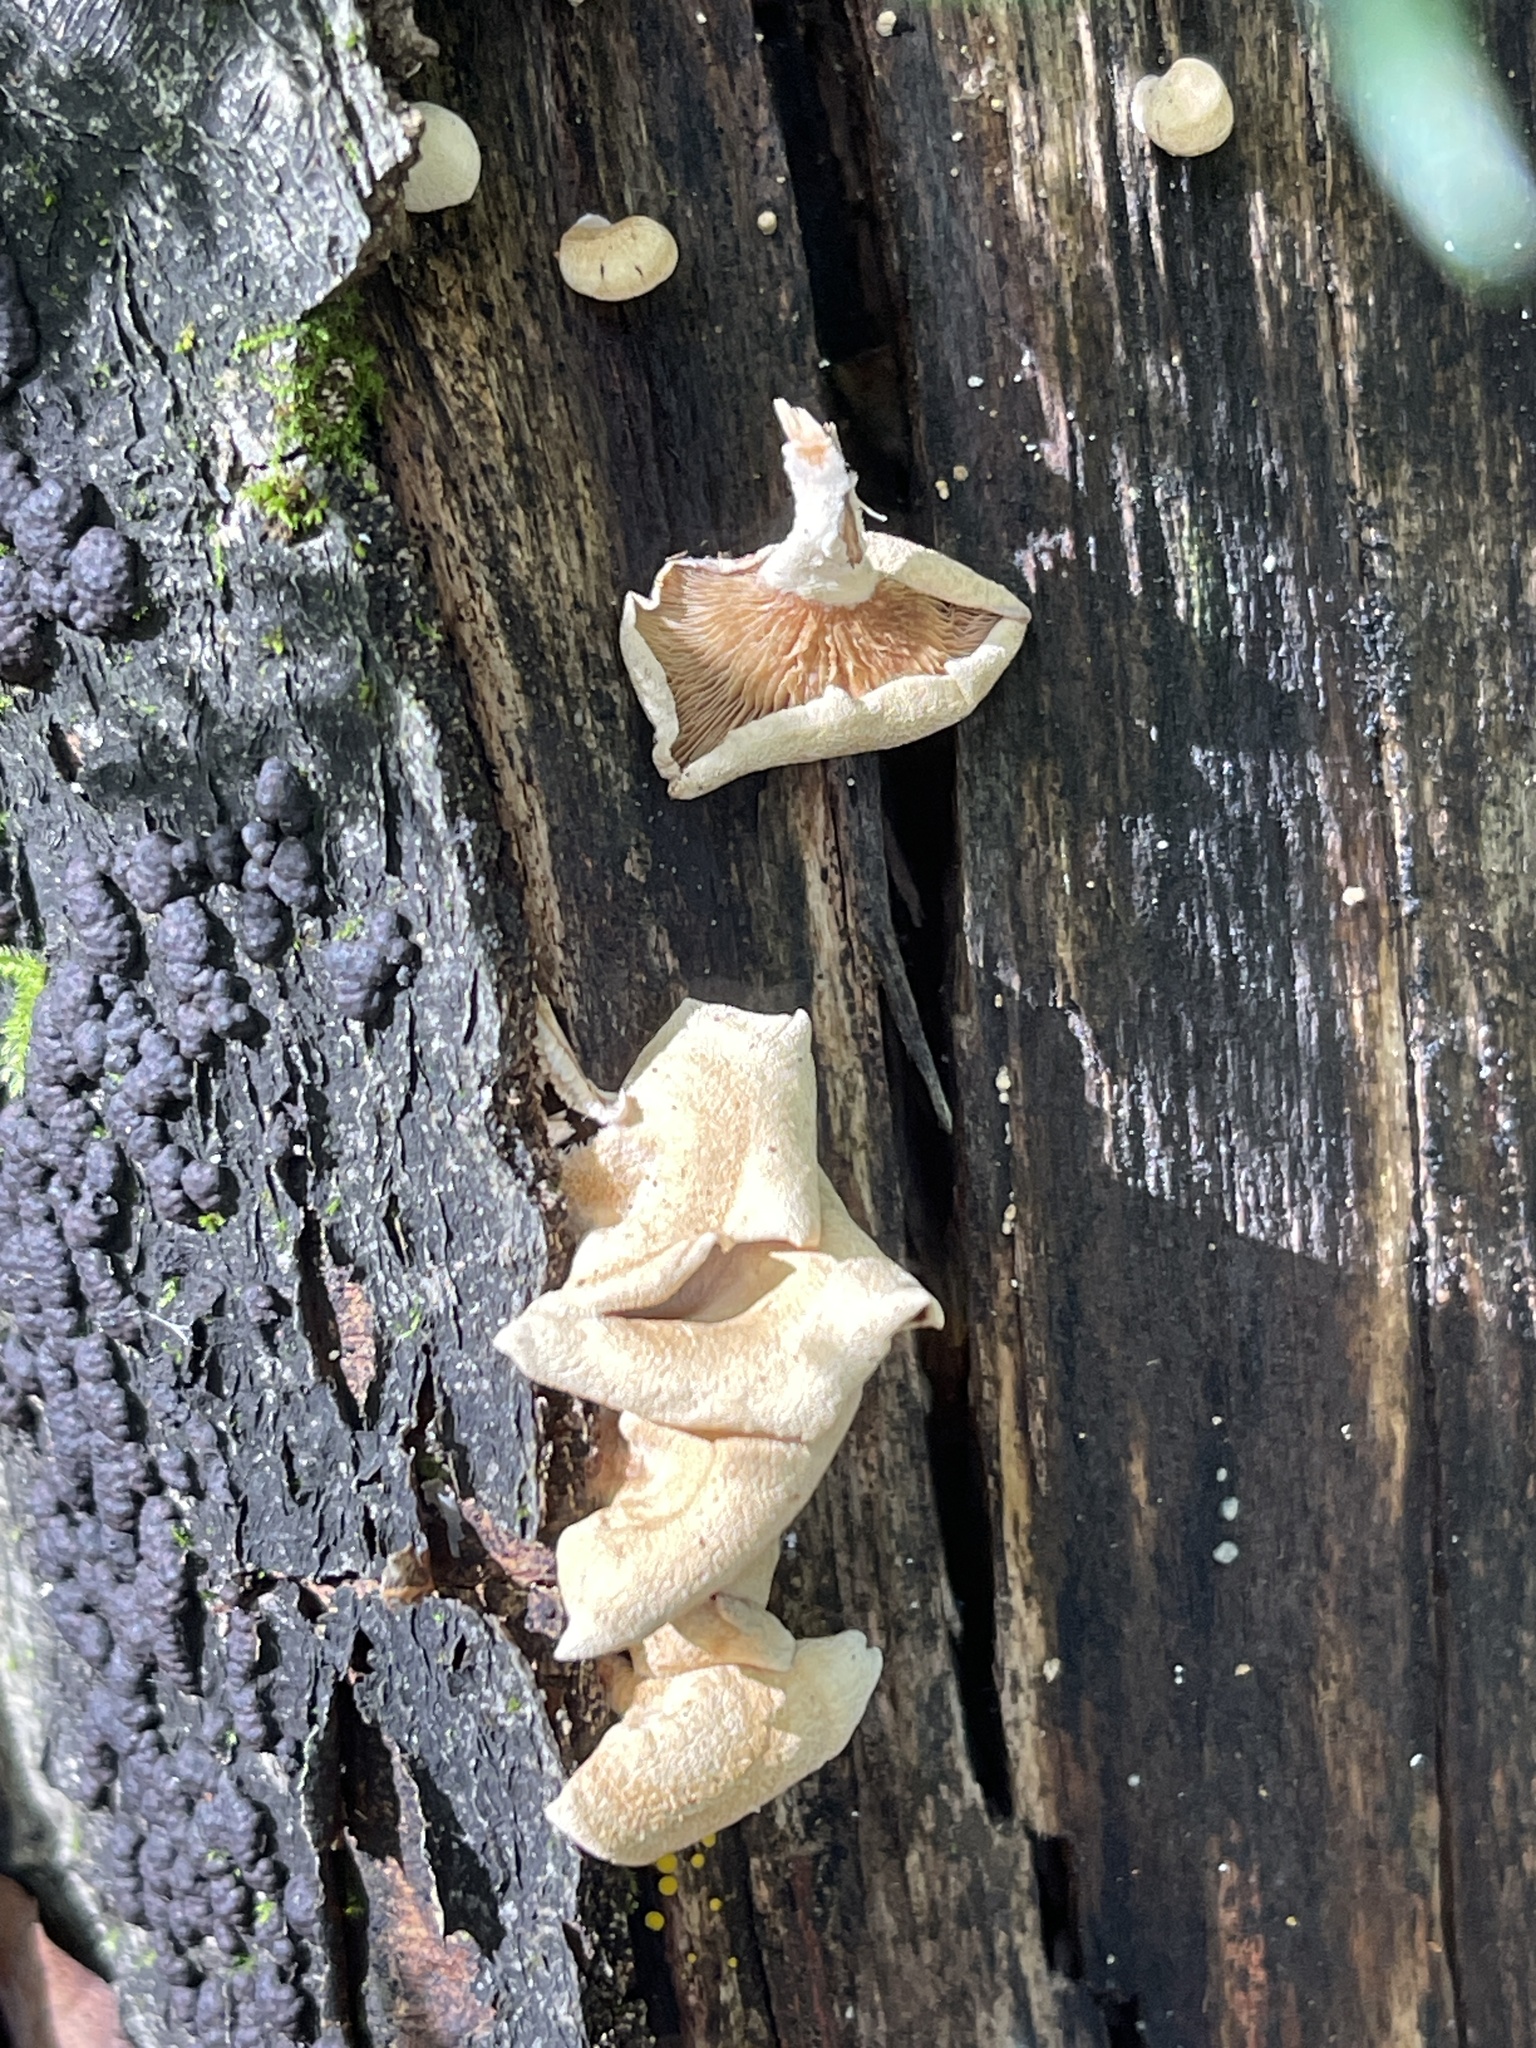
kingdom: Fungi
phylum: Basidiomycota
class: Agaricomycetes
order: Agaricales
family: Mycenaceae
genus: Panellus
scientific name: Panellus stipticus
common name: Bitter oysterling
